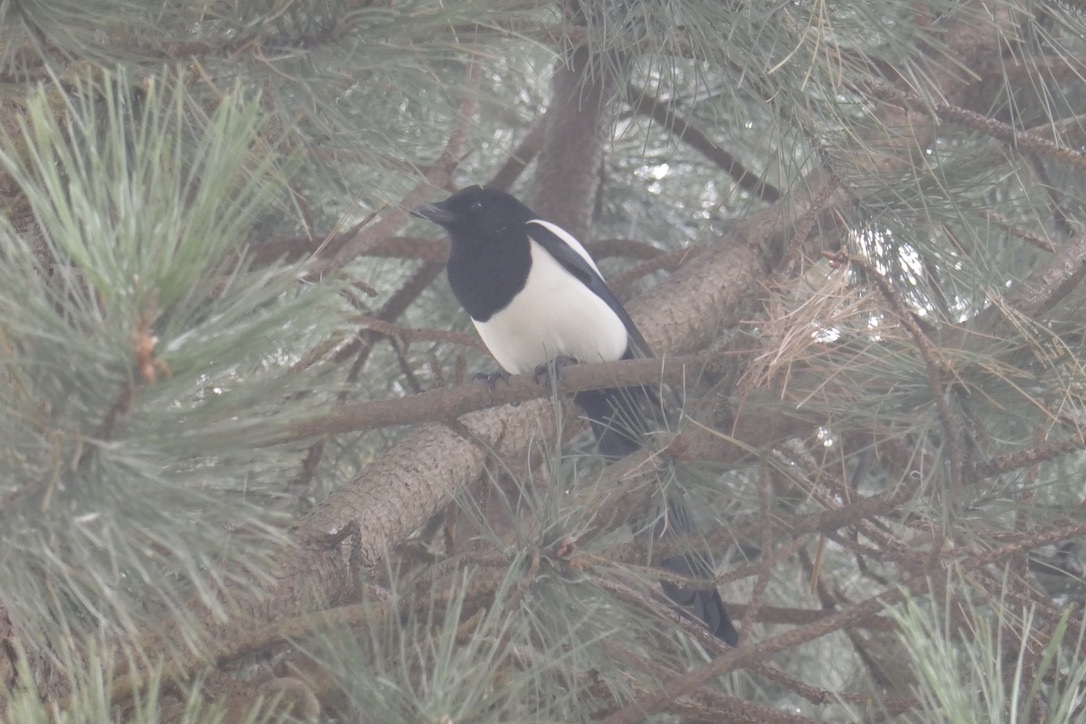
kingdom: Animalia
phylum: Chordata
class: Aves
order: Passeriformes
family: Corvidae
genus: Pica
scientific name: Pica pica
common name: Eurasian magpie
